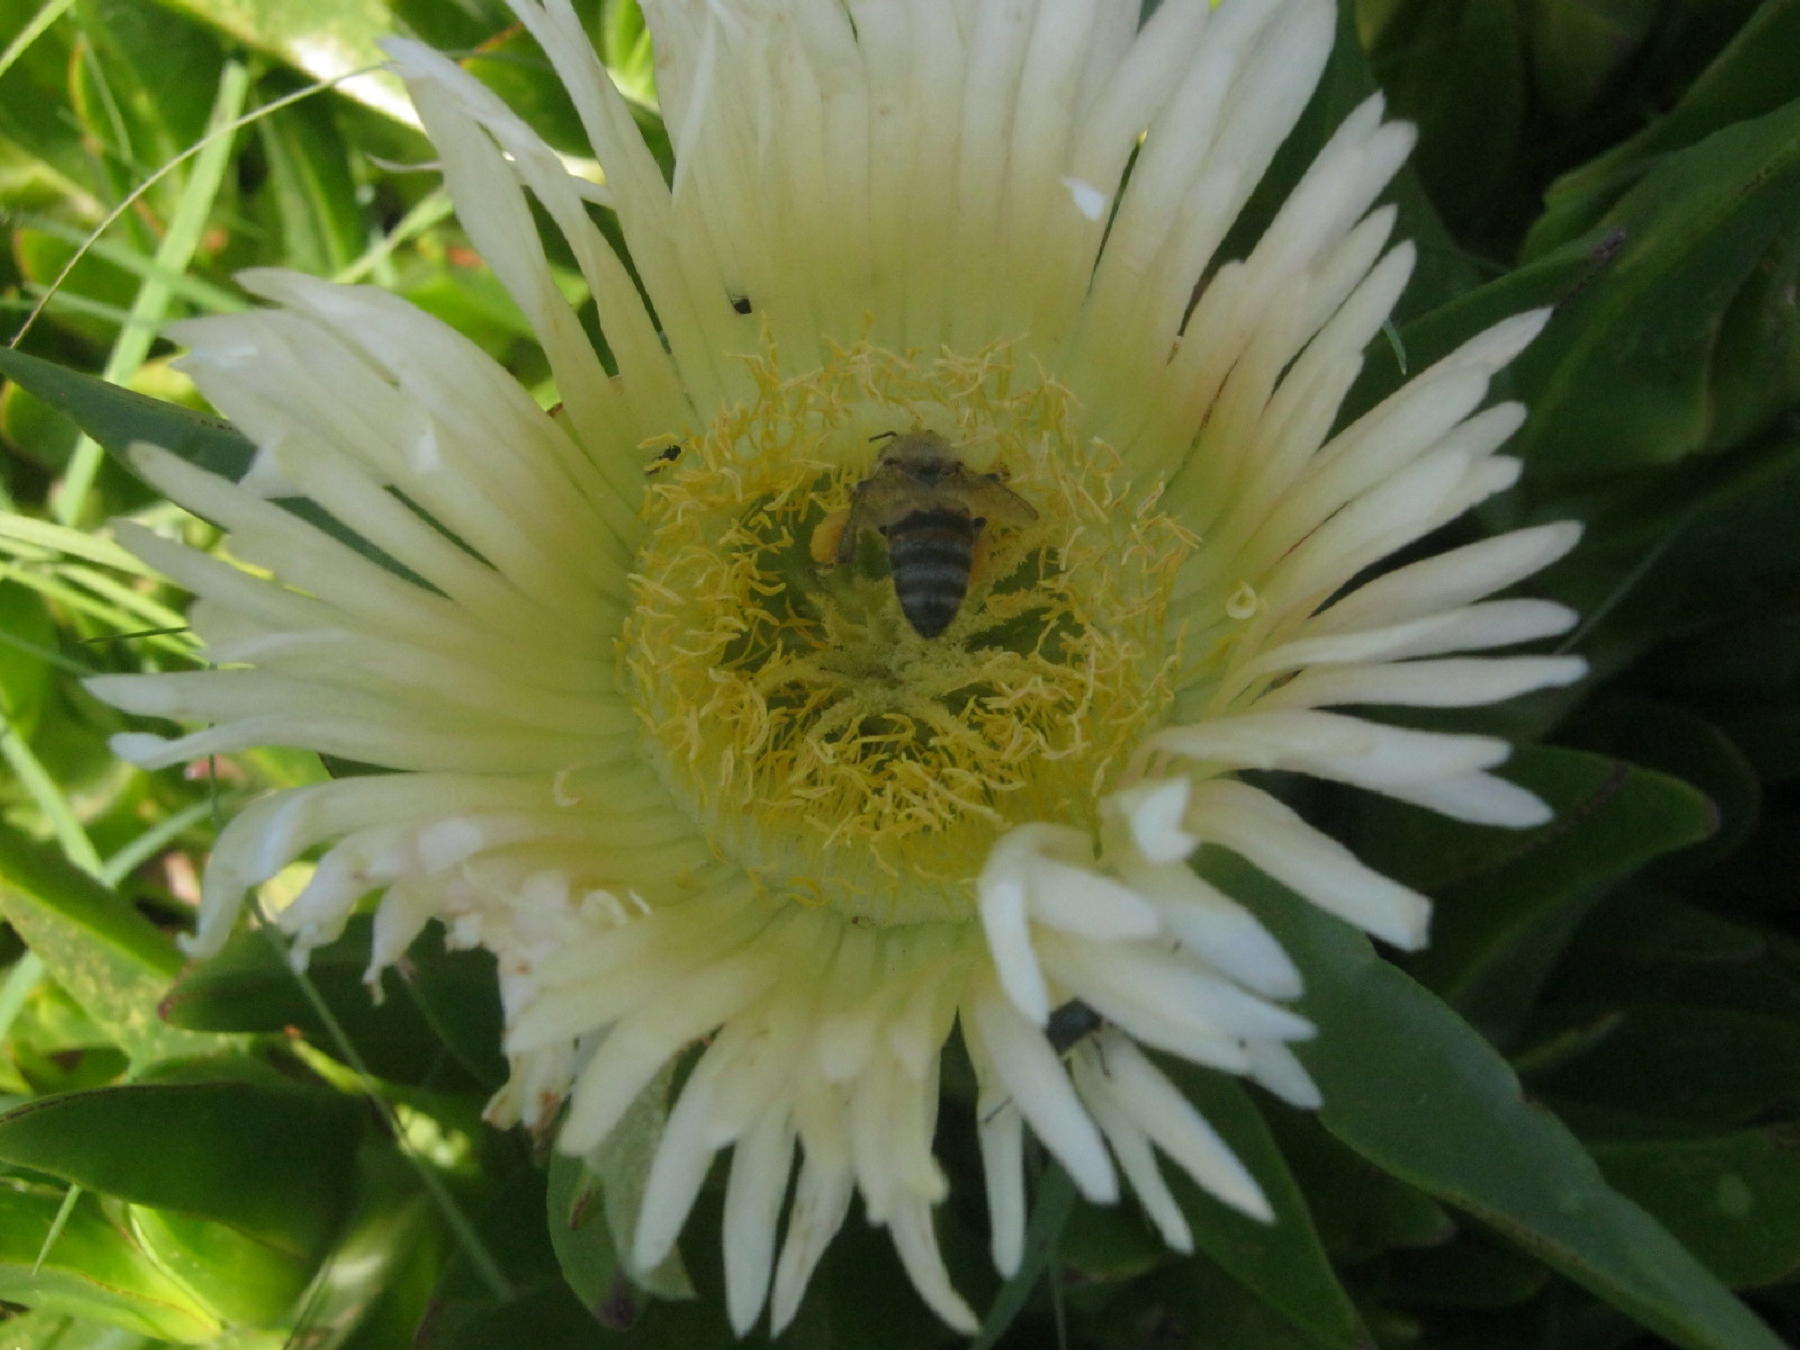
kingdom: Plantae
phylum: Tracheophyta
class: Magnoliopsida
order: Caryophyllales
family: Aizoaceae
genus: Carpobrotus
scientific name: Carpobrotus edulis
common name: Hottentot-fig
